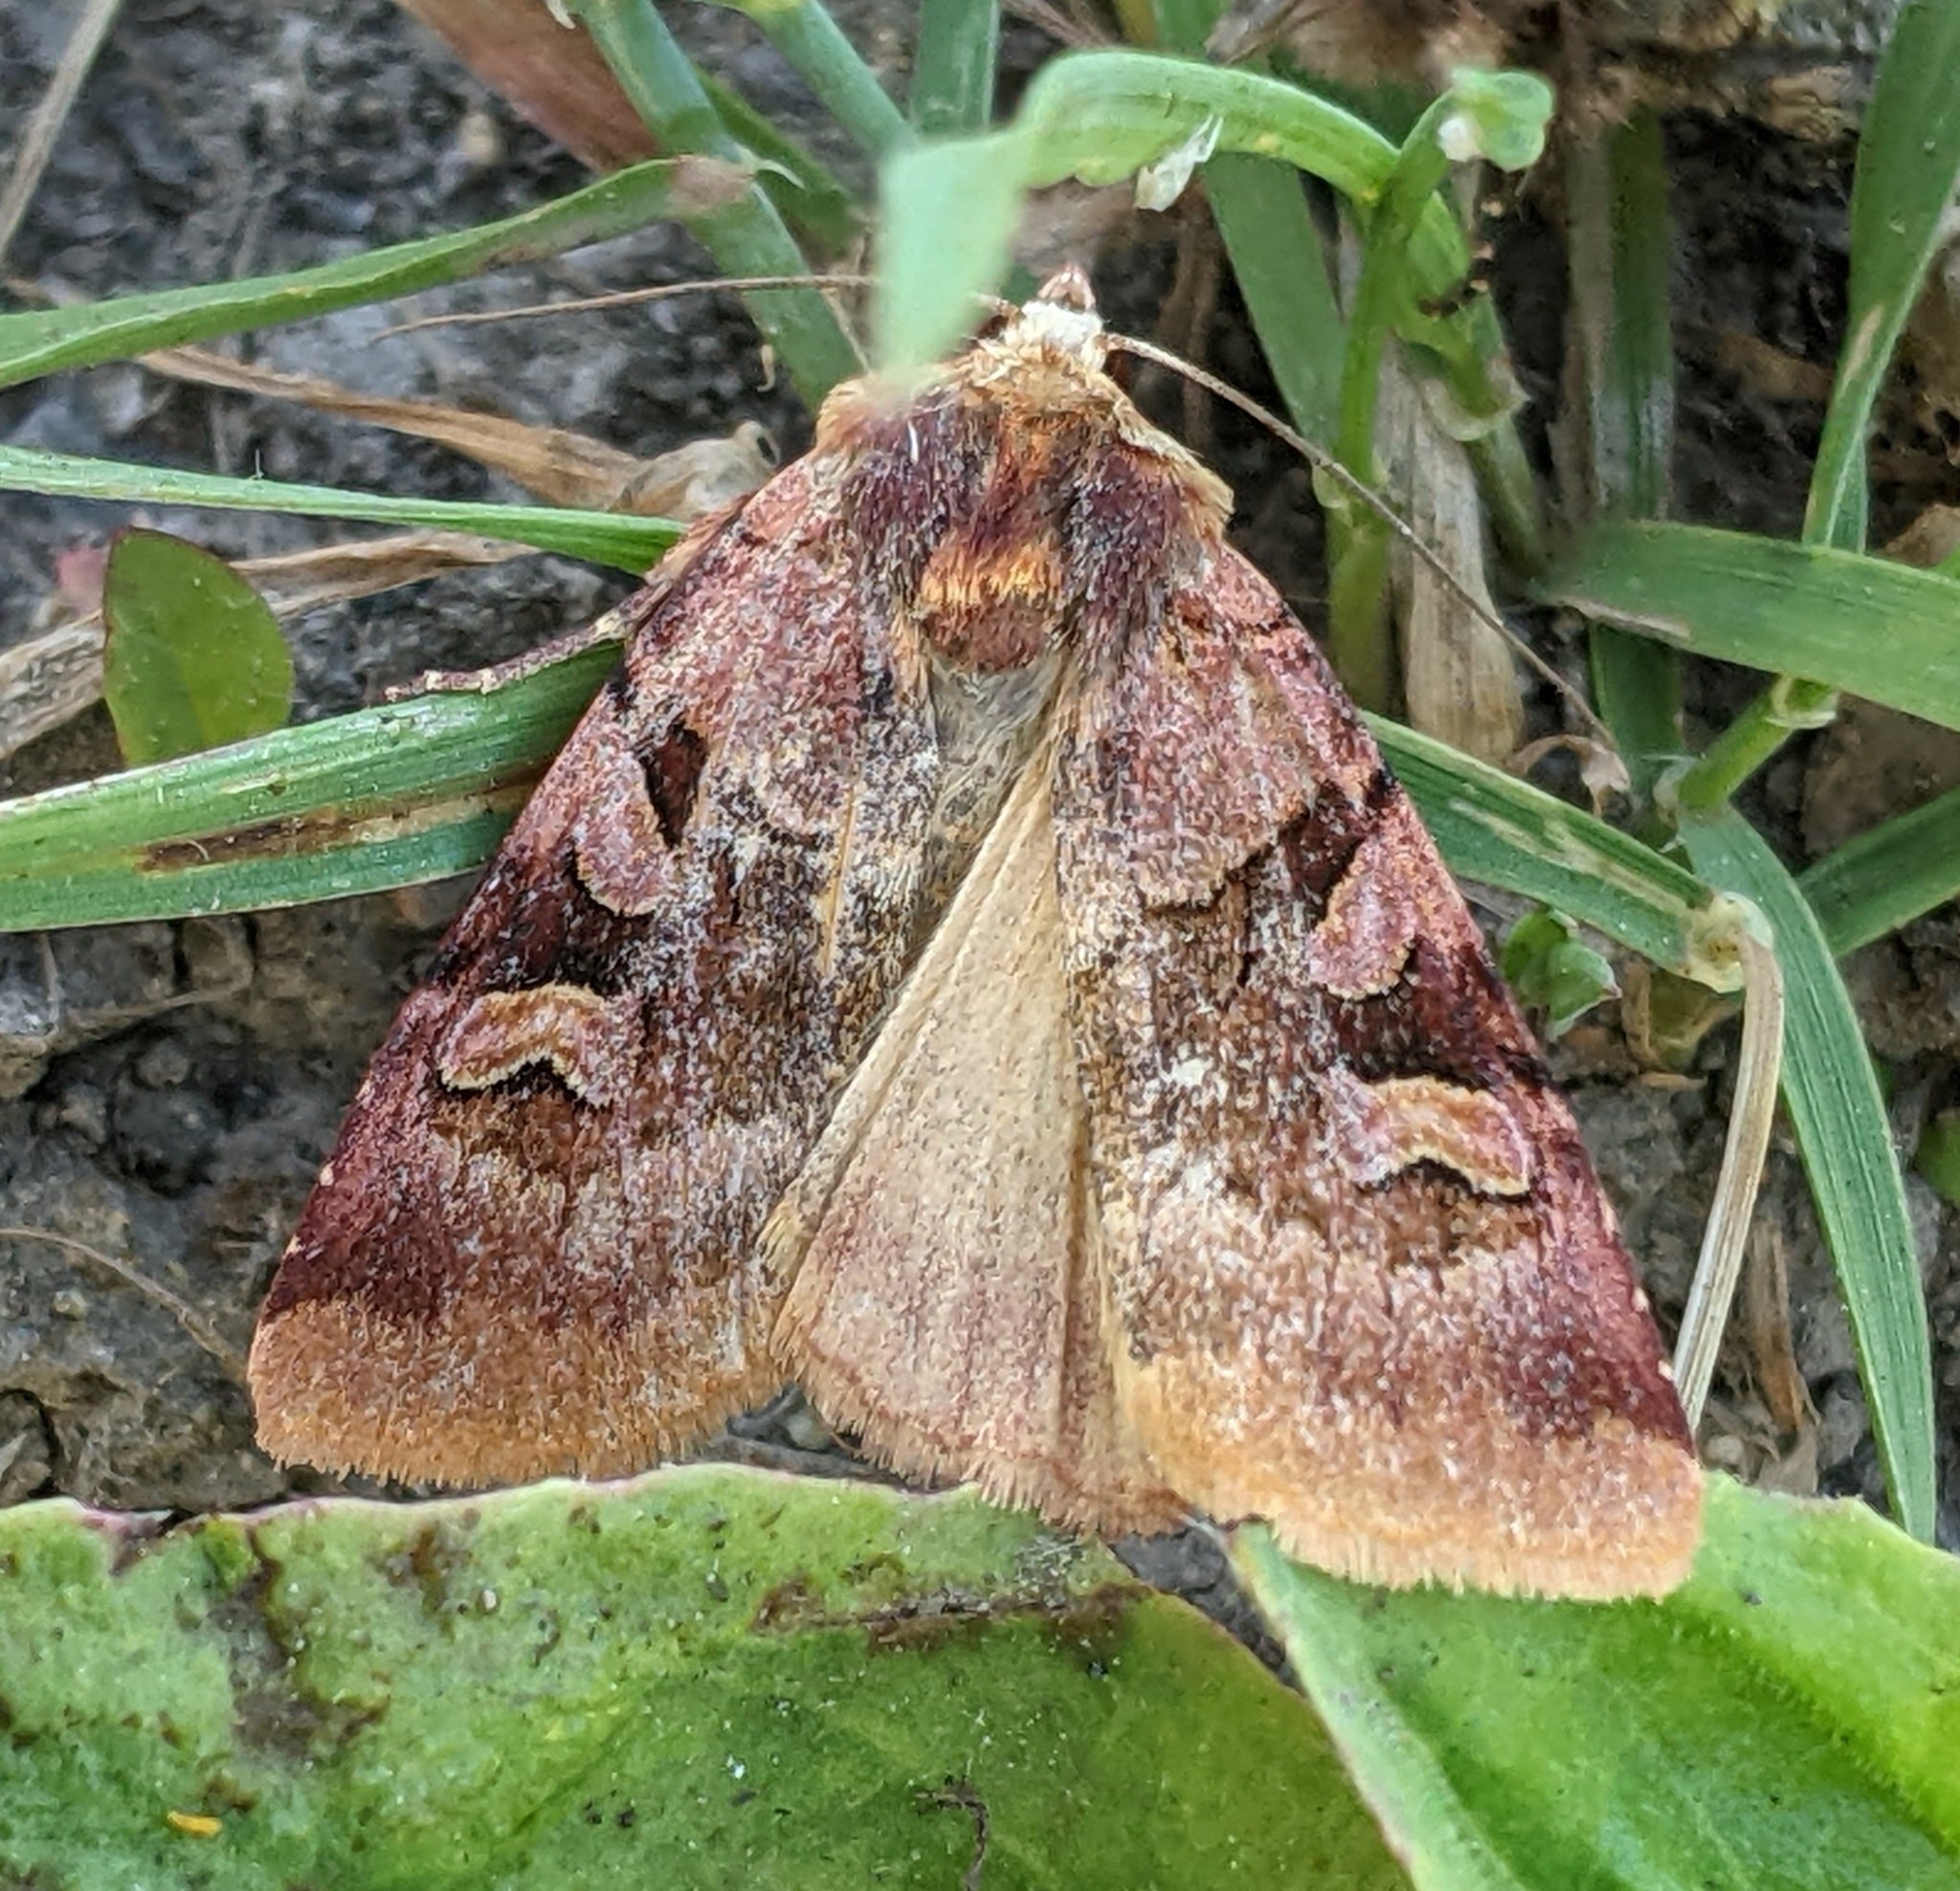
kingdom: Animalia
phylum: Arthropoda
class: Insecta
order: Lepidoptera
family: Noctuidae
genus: Xestia
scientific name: Xestia oblata
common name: Rosy dart
